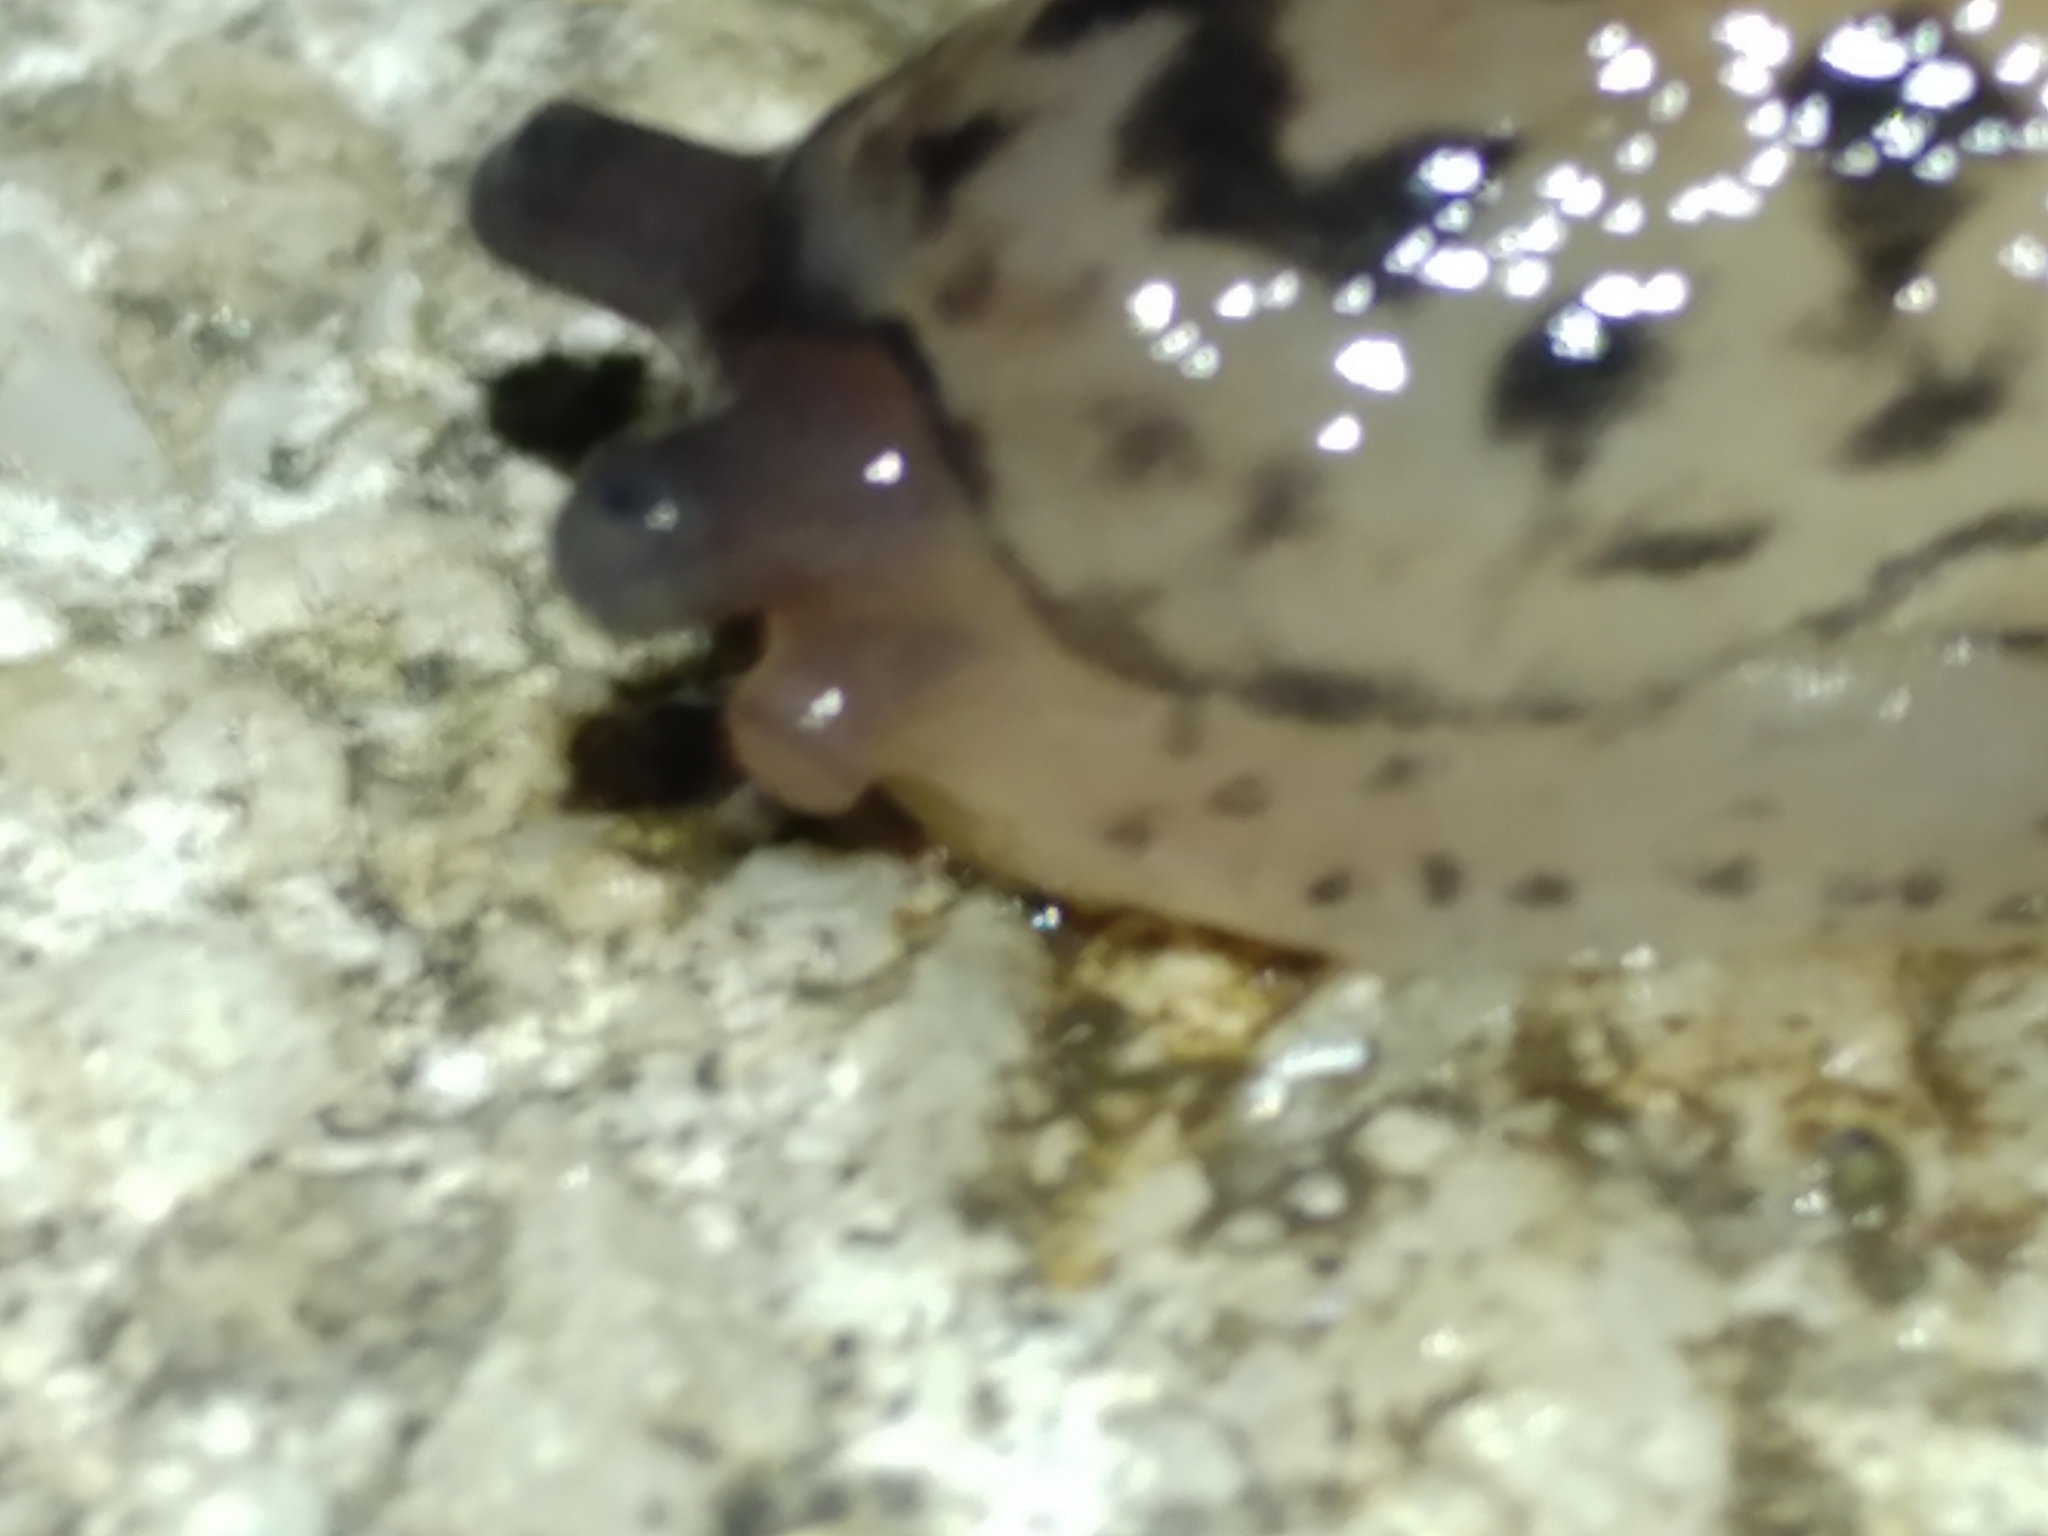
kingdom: Animalia
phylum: Mollusca
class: Gastropoda
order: Stylommatophora
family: Limacidae
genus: Limax
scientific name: Limax maximus
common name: Great grey slug
